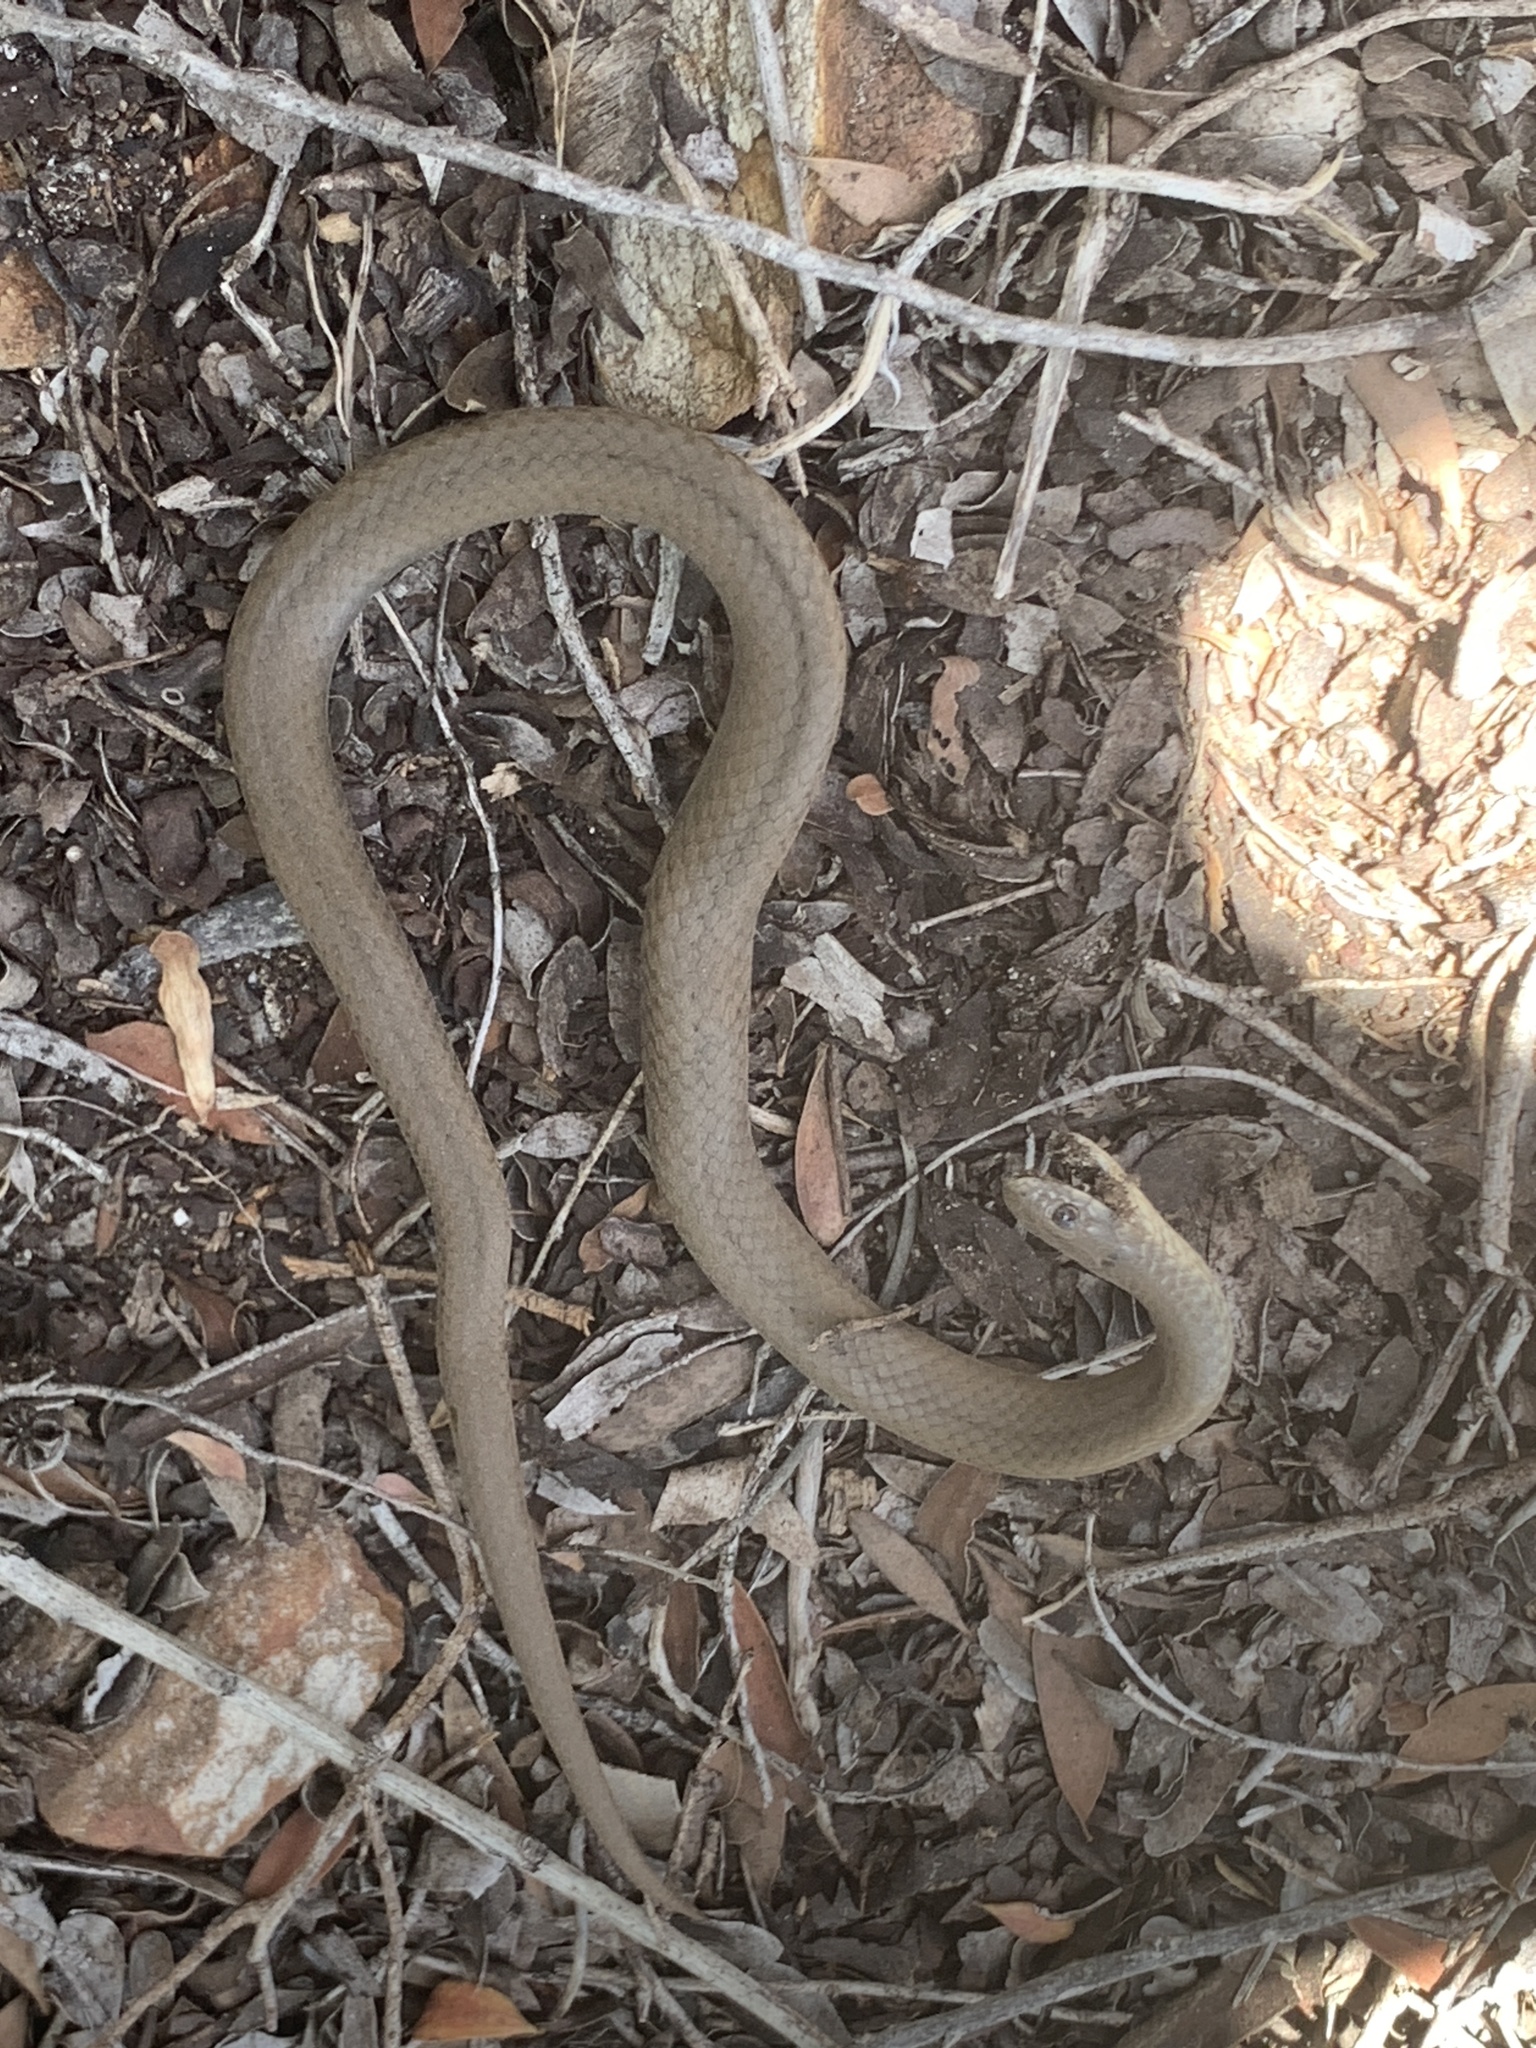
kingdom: Animalia
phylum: Chordata
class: Squamata
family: Pseudoxyrhophiidae
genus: Duberria
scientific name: Duberria lutrix
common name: Common slug eater
